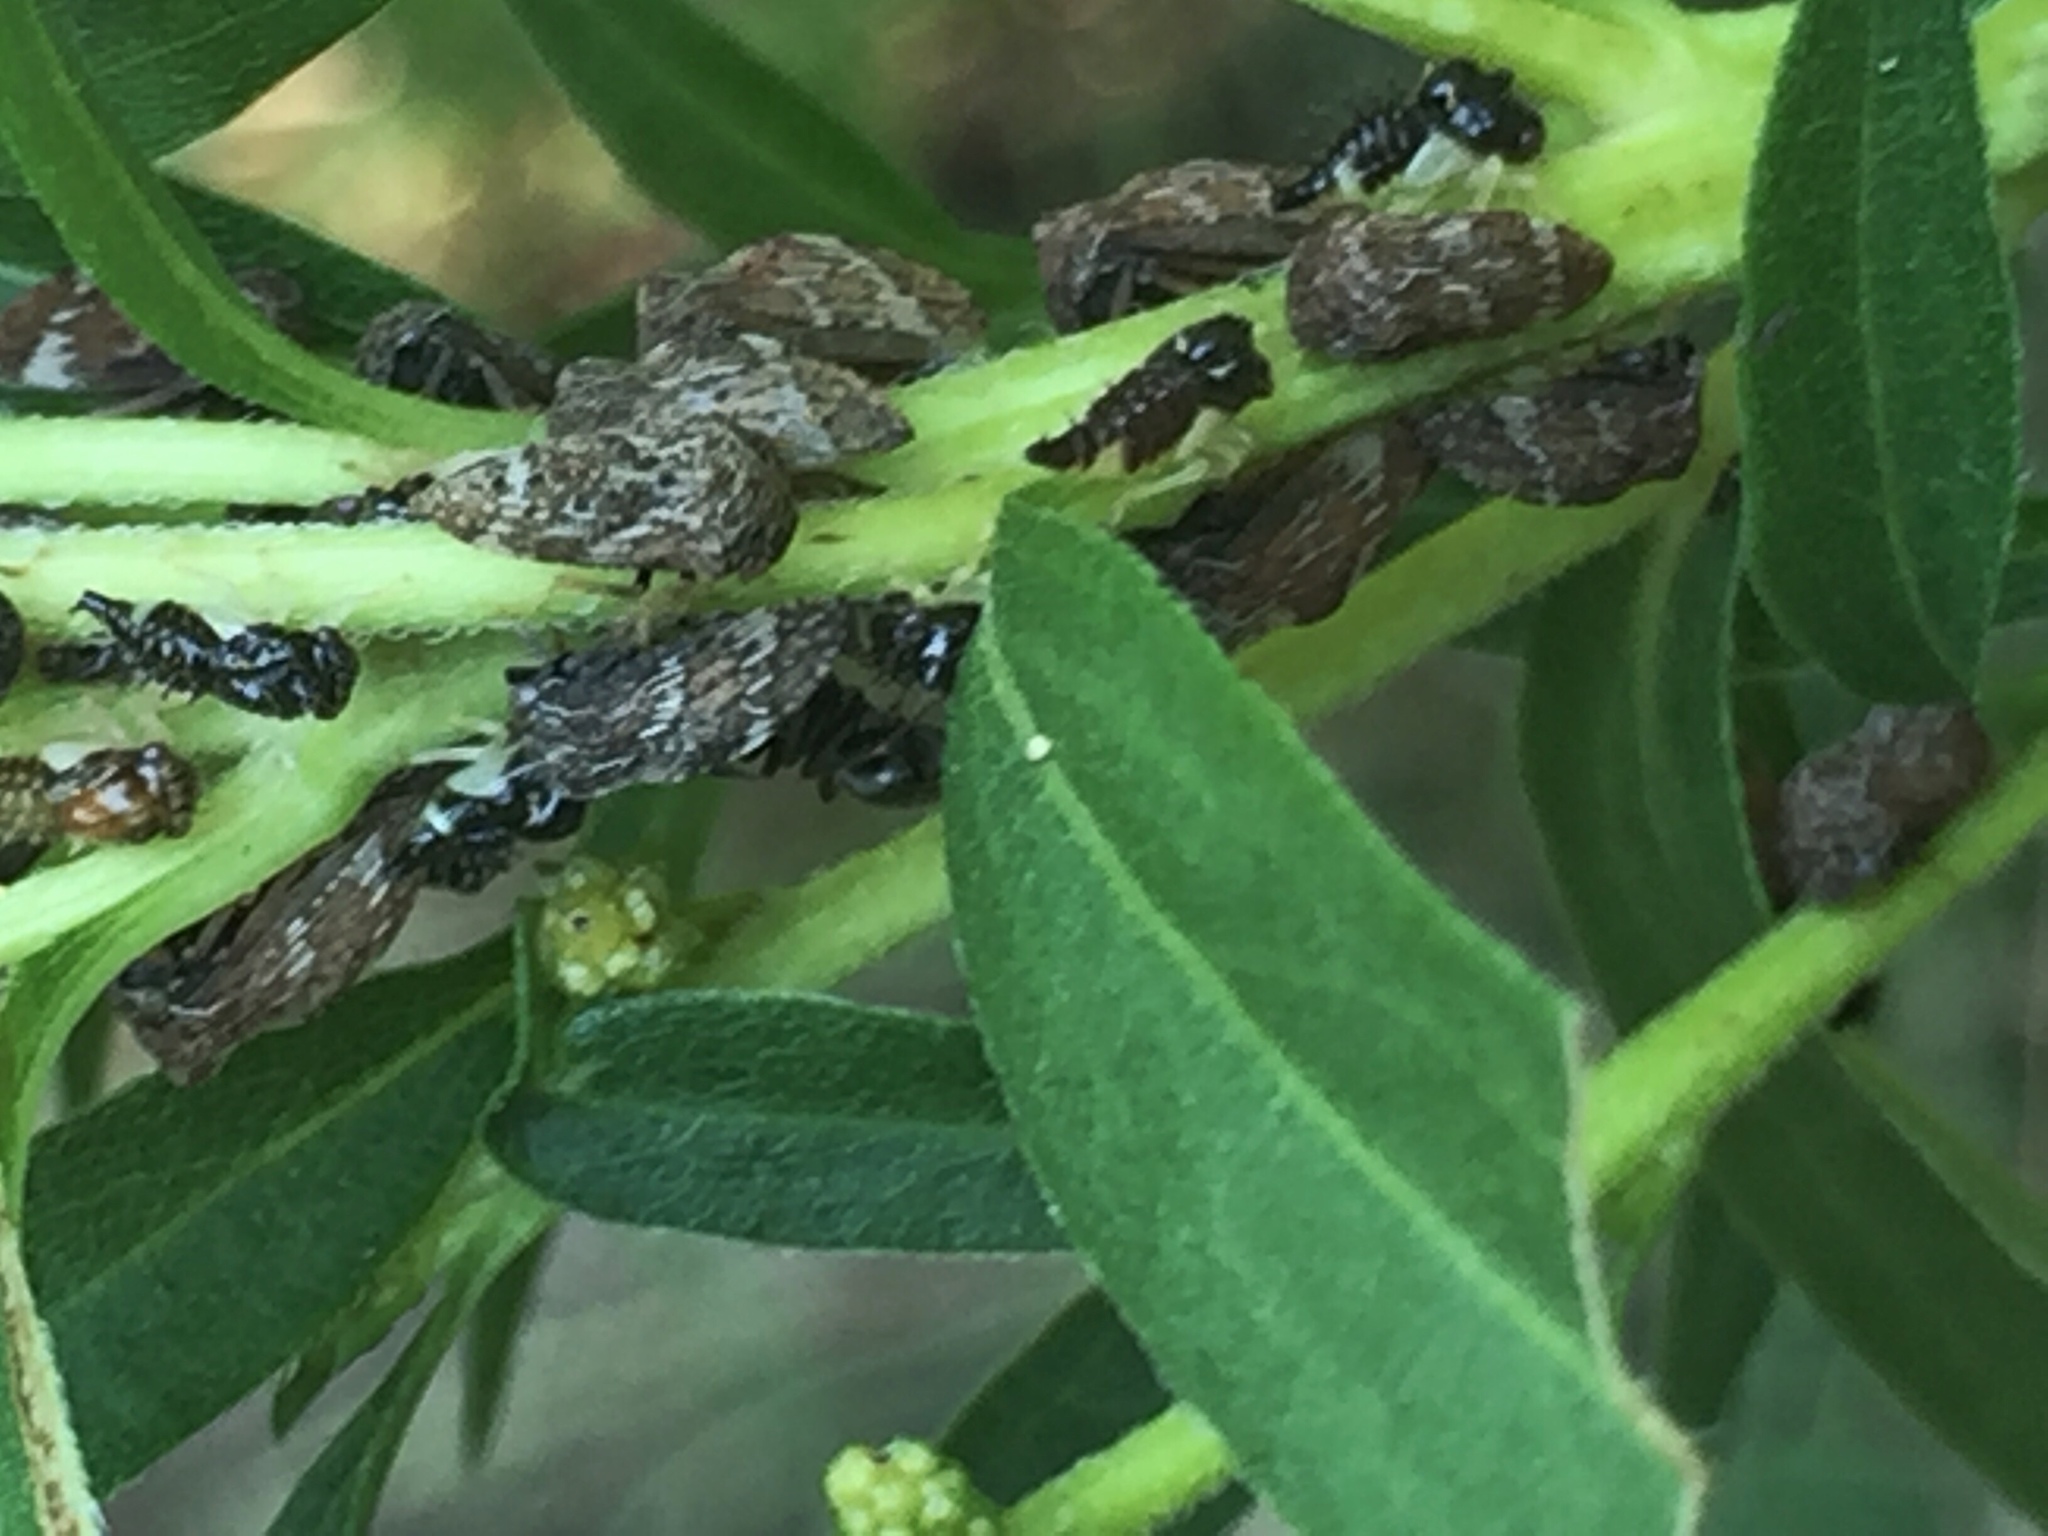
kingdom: Animalia
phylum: Arthropoda
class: Insecta
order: Hemiptera
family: Membracidae
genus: Publilia
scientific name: Publilia concava
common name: Aster treehopper
